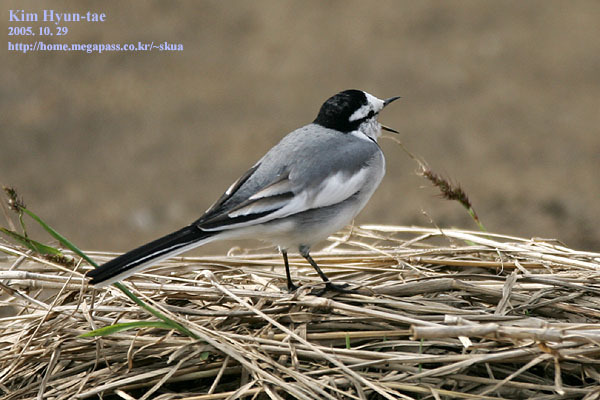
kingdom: Animalia
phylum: Chordata
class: Aves
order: Passeriformes
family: Motacillidae
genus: Motacilla
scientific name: Motacilla alba
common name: White wagtail
